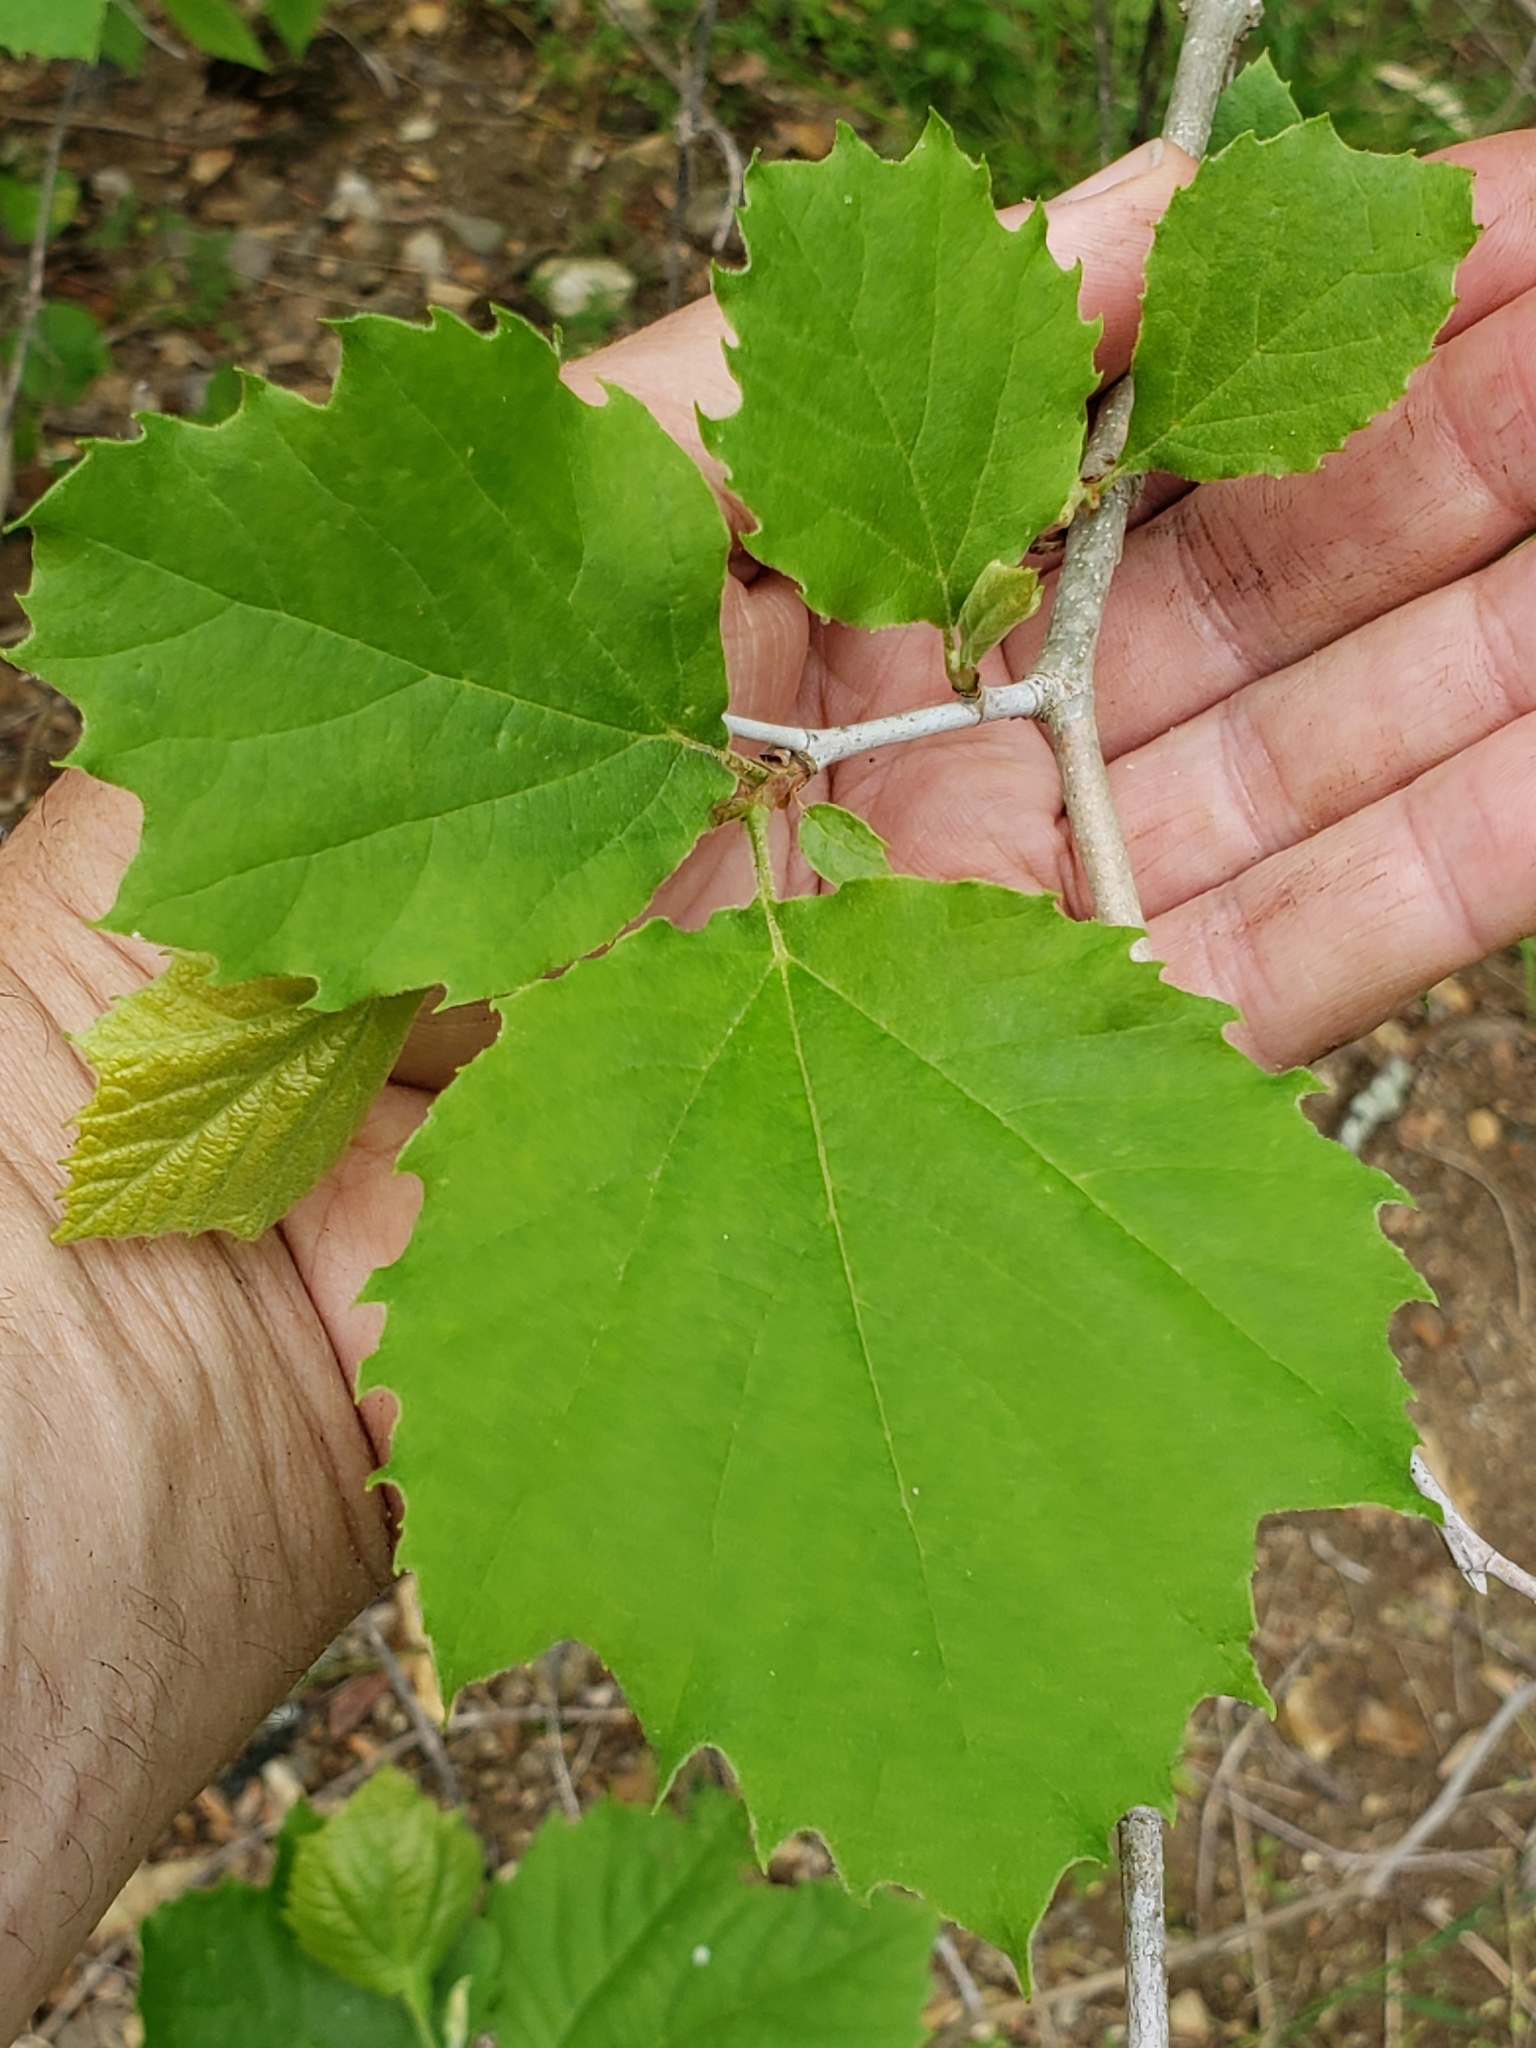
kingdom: Plantae
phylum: Tracheophyta
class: Magnoliopsida
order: Proteales
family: Platanaceae
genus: Platanus
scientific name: Platanus occidentalis
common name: American sycamore
